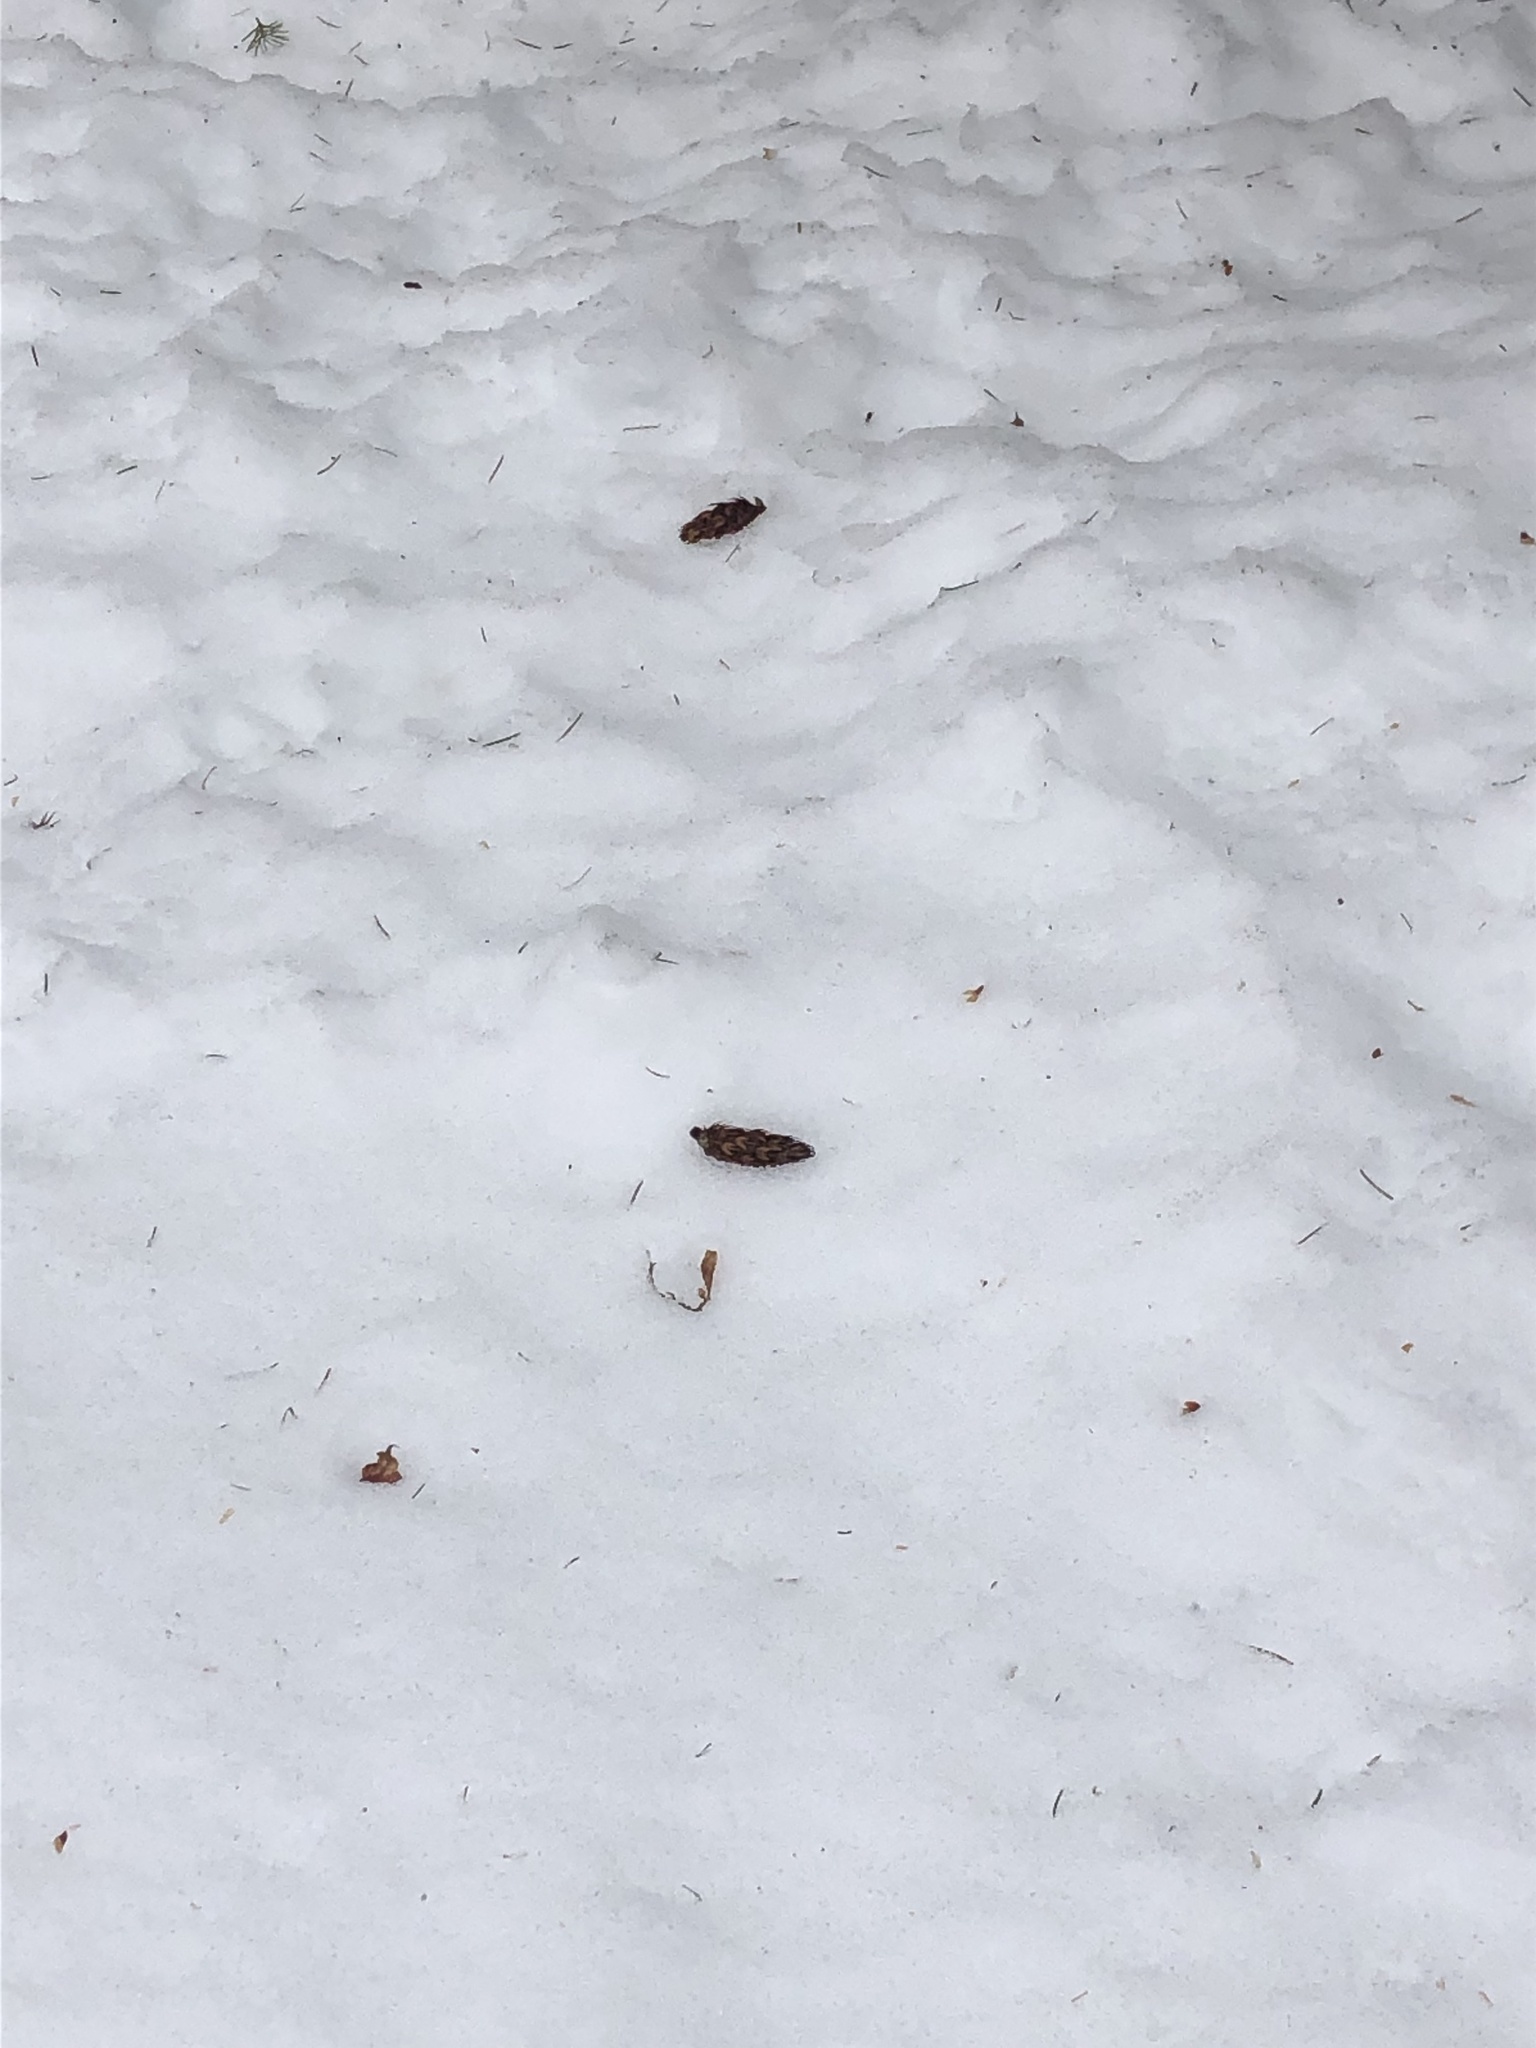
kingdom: Plantae
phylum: Tracheophyta
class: Pinopsida
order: Pinales
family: Pinaceae
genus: Pseudotsuga
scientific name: Pseudotsuga menziesii
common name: Douglas fir
